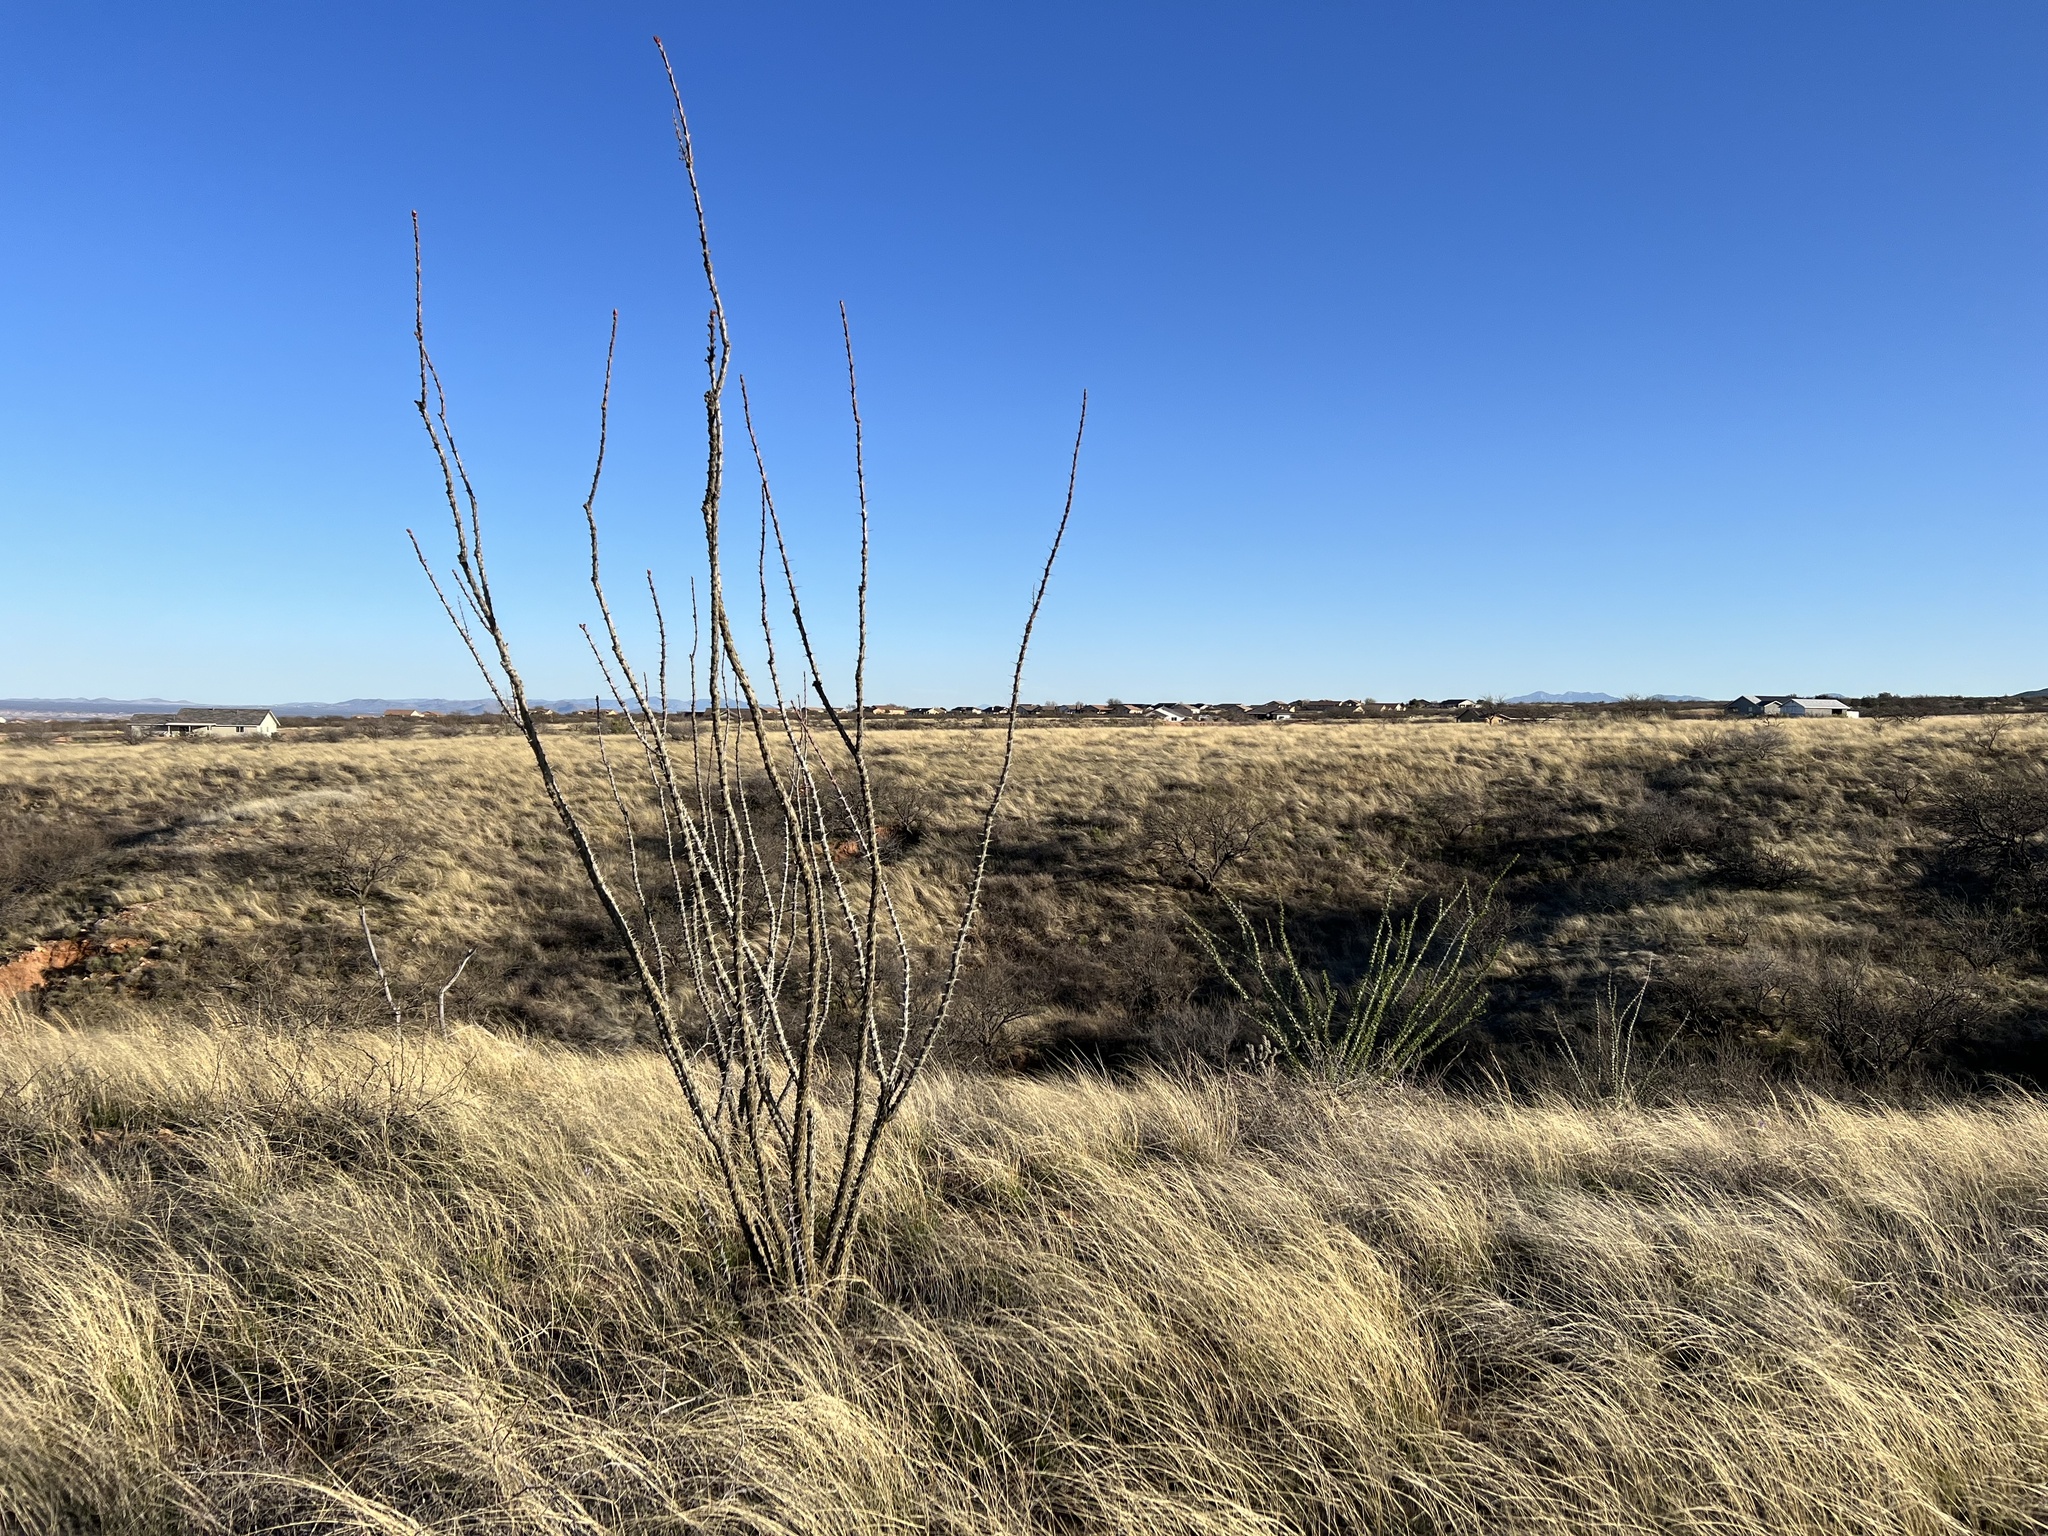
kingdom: Plantae
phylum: Tracheophyta
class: Magnoliopsida
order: Ericales
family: Fouquieriaceae
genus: Fouquieria
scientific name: Fouquieria splendens
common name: Vine-cactus
